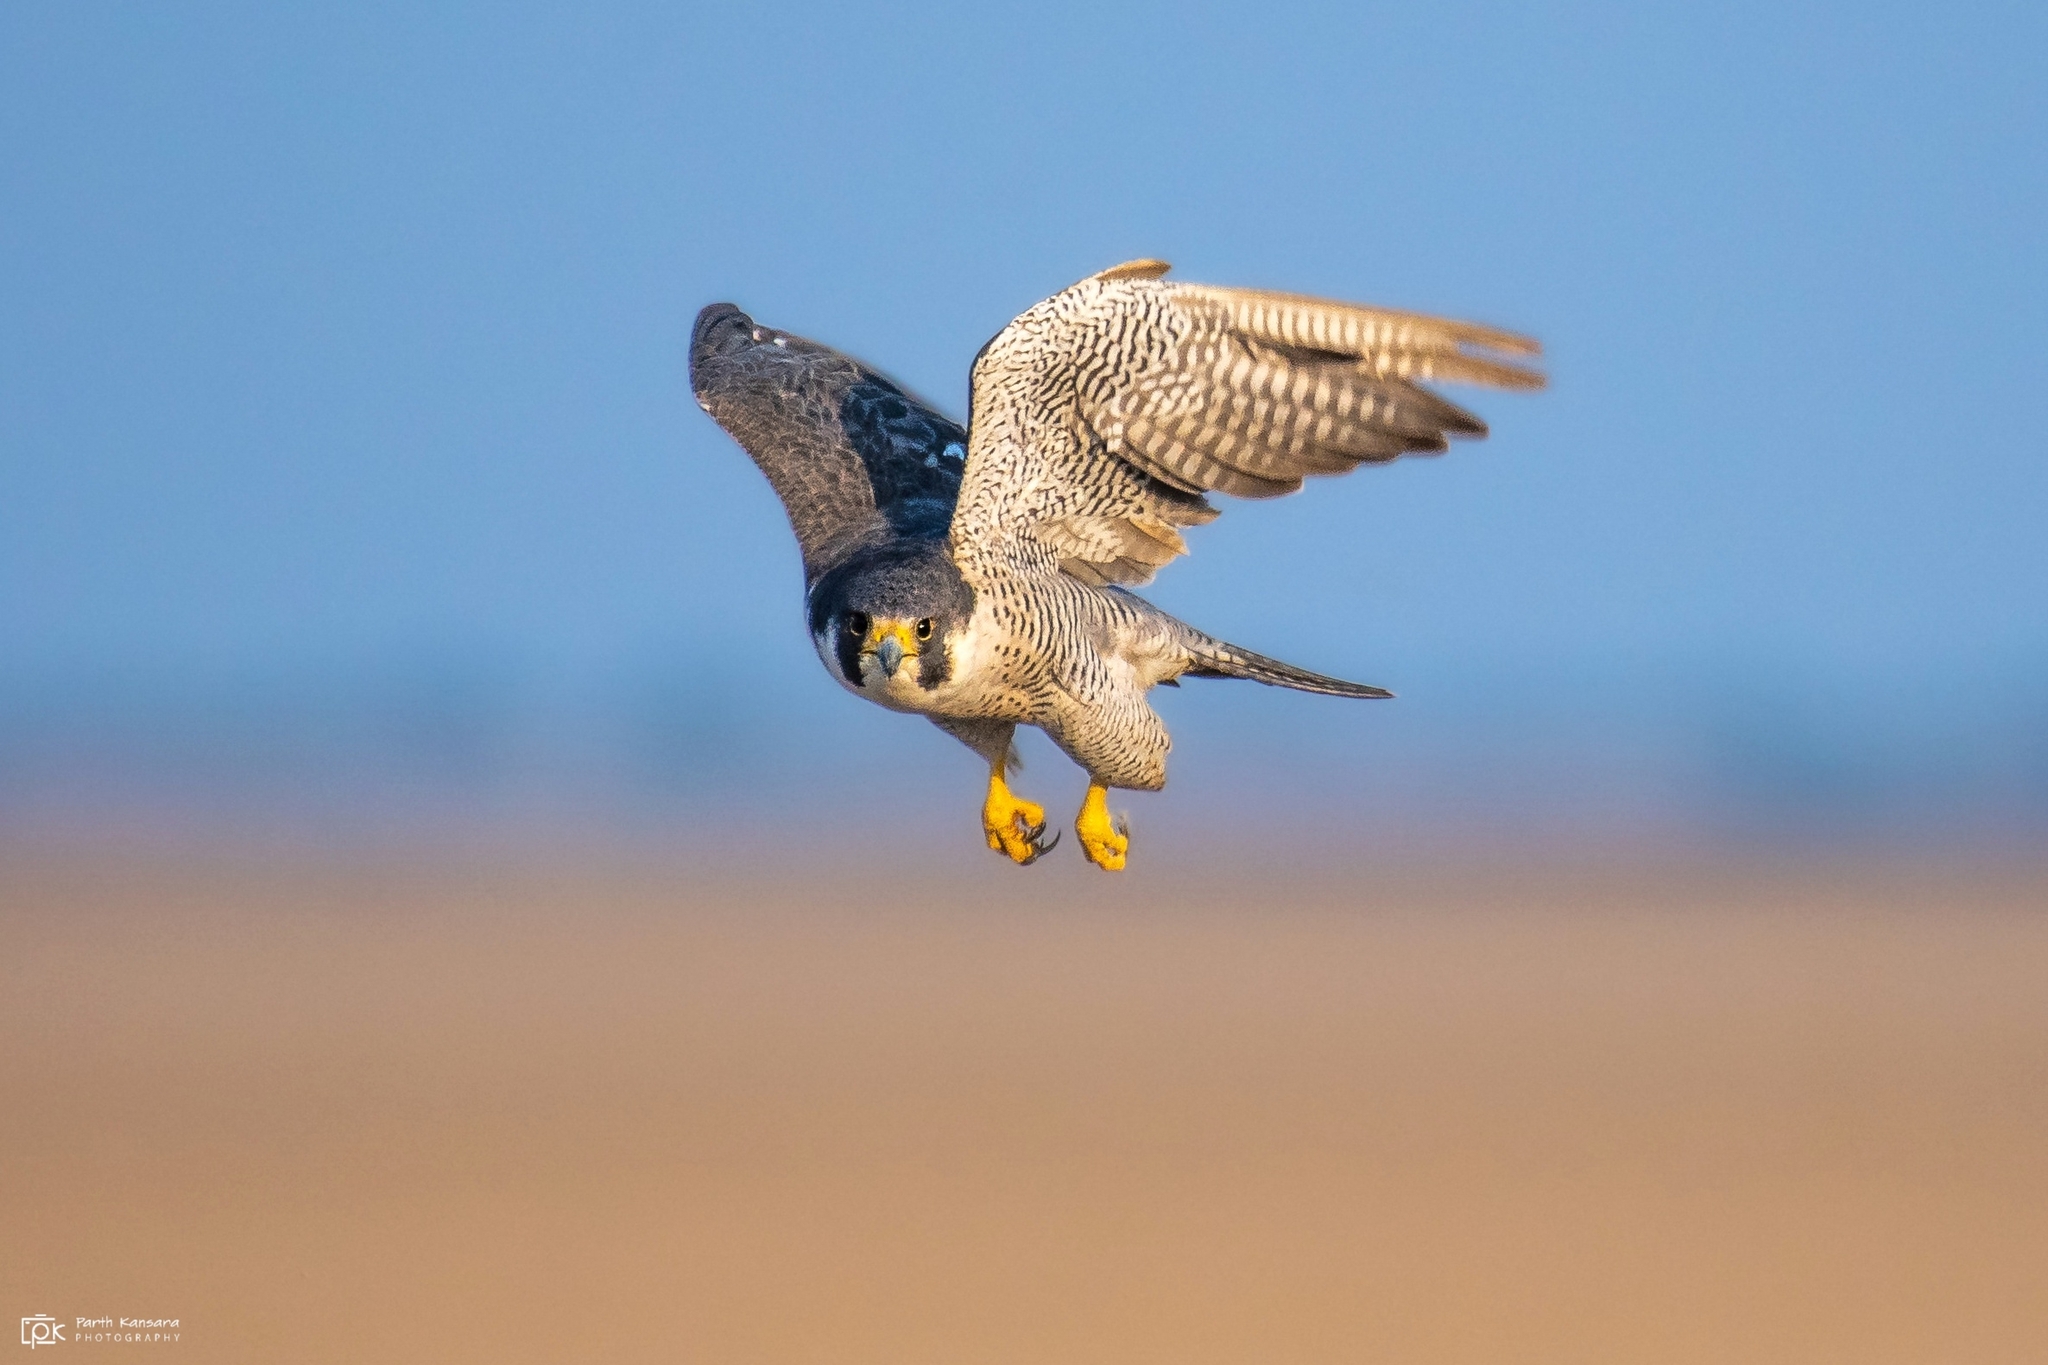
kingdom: Animalia
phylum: Chordata
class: Aves
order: Falconiformes
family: Falconidae
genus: Falco
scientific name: Falco peregrinus
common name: Peregrine falcon
